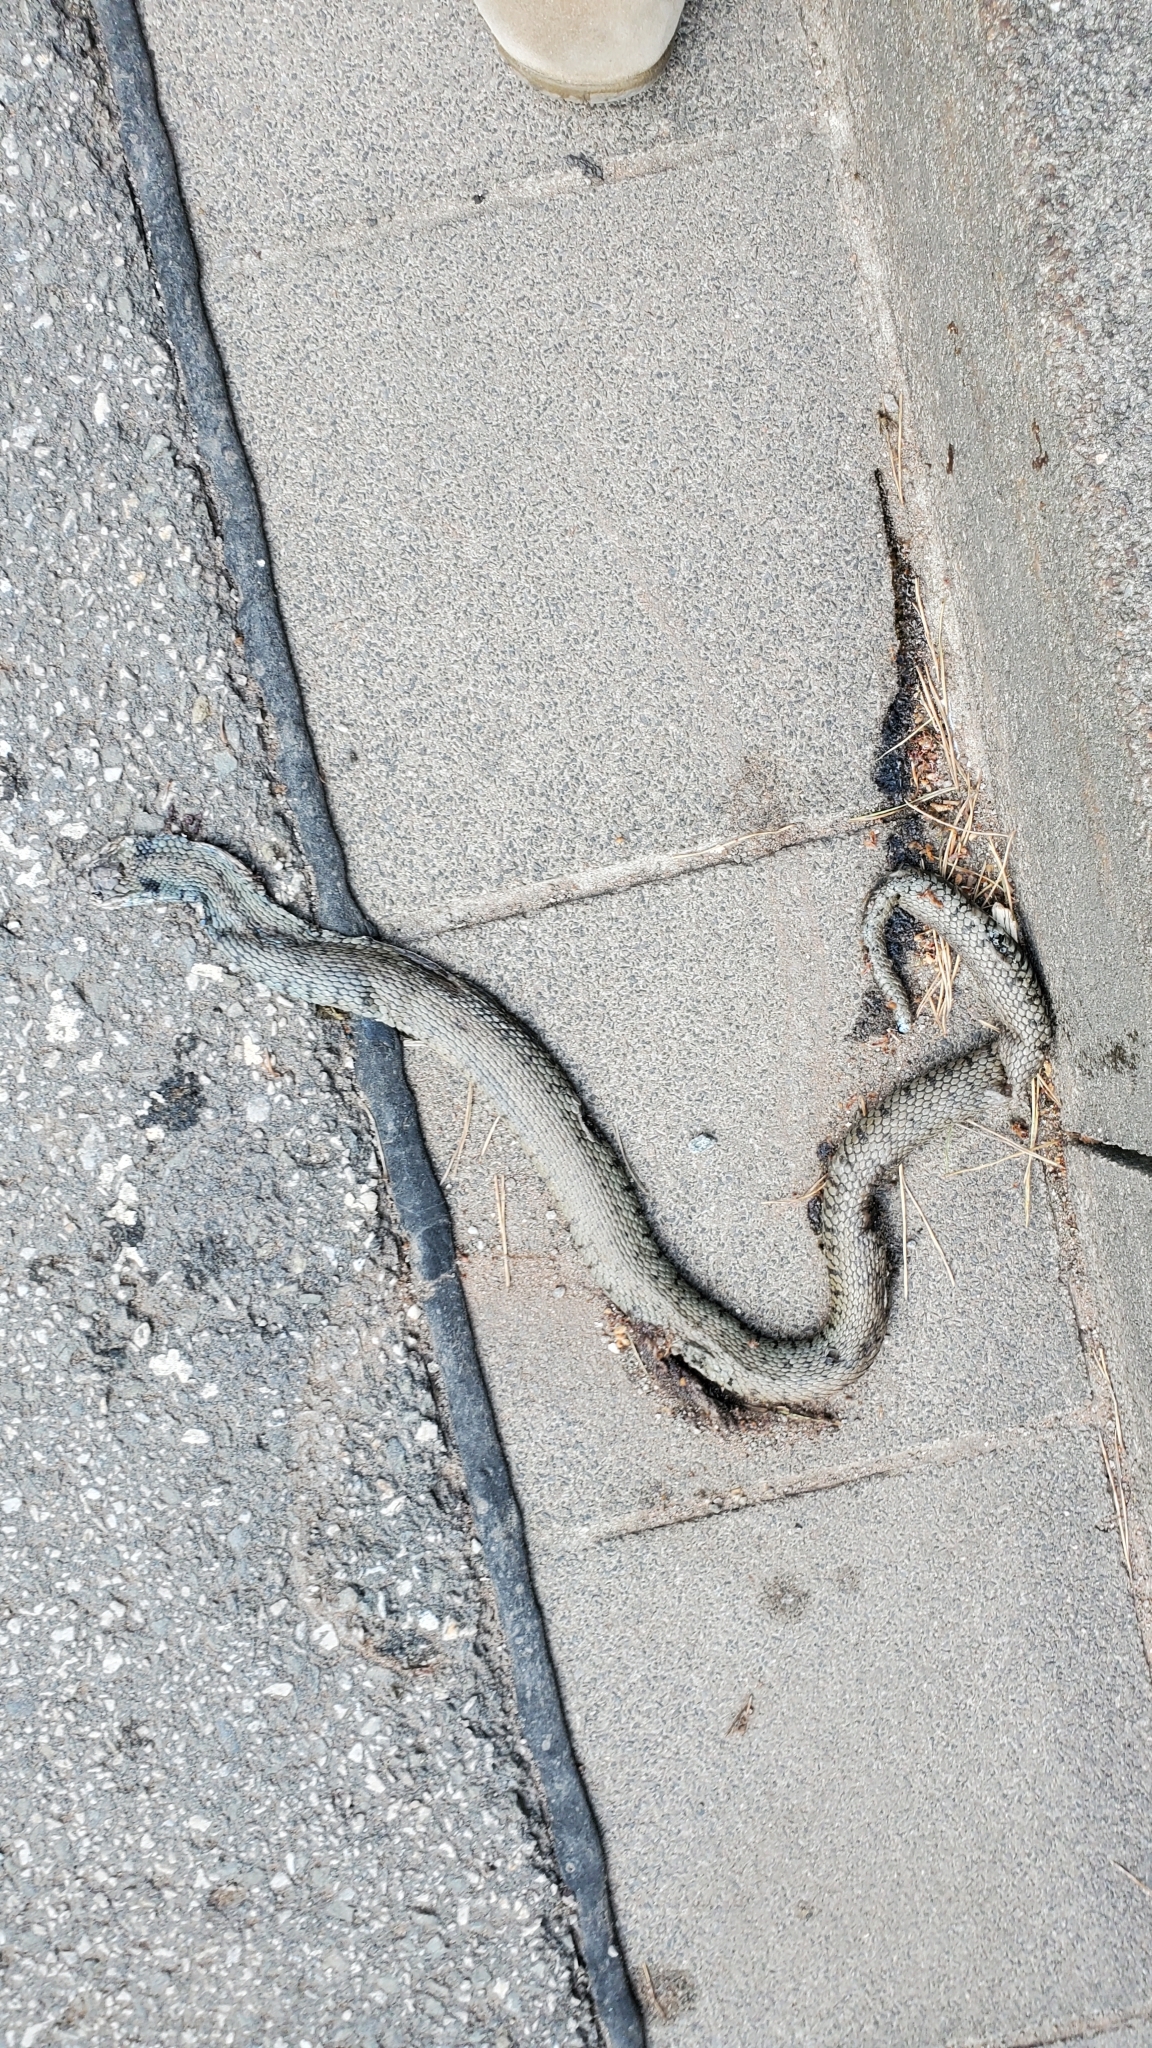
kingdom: Animalia
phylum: Chordata
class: Squamata
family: Colubridae
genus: Natrix
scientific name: Natrix helvetica
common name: Banded grass snake
